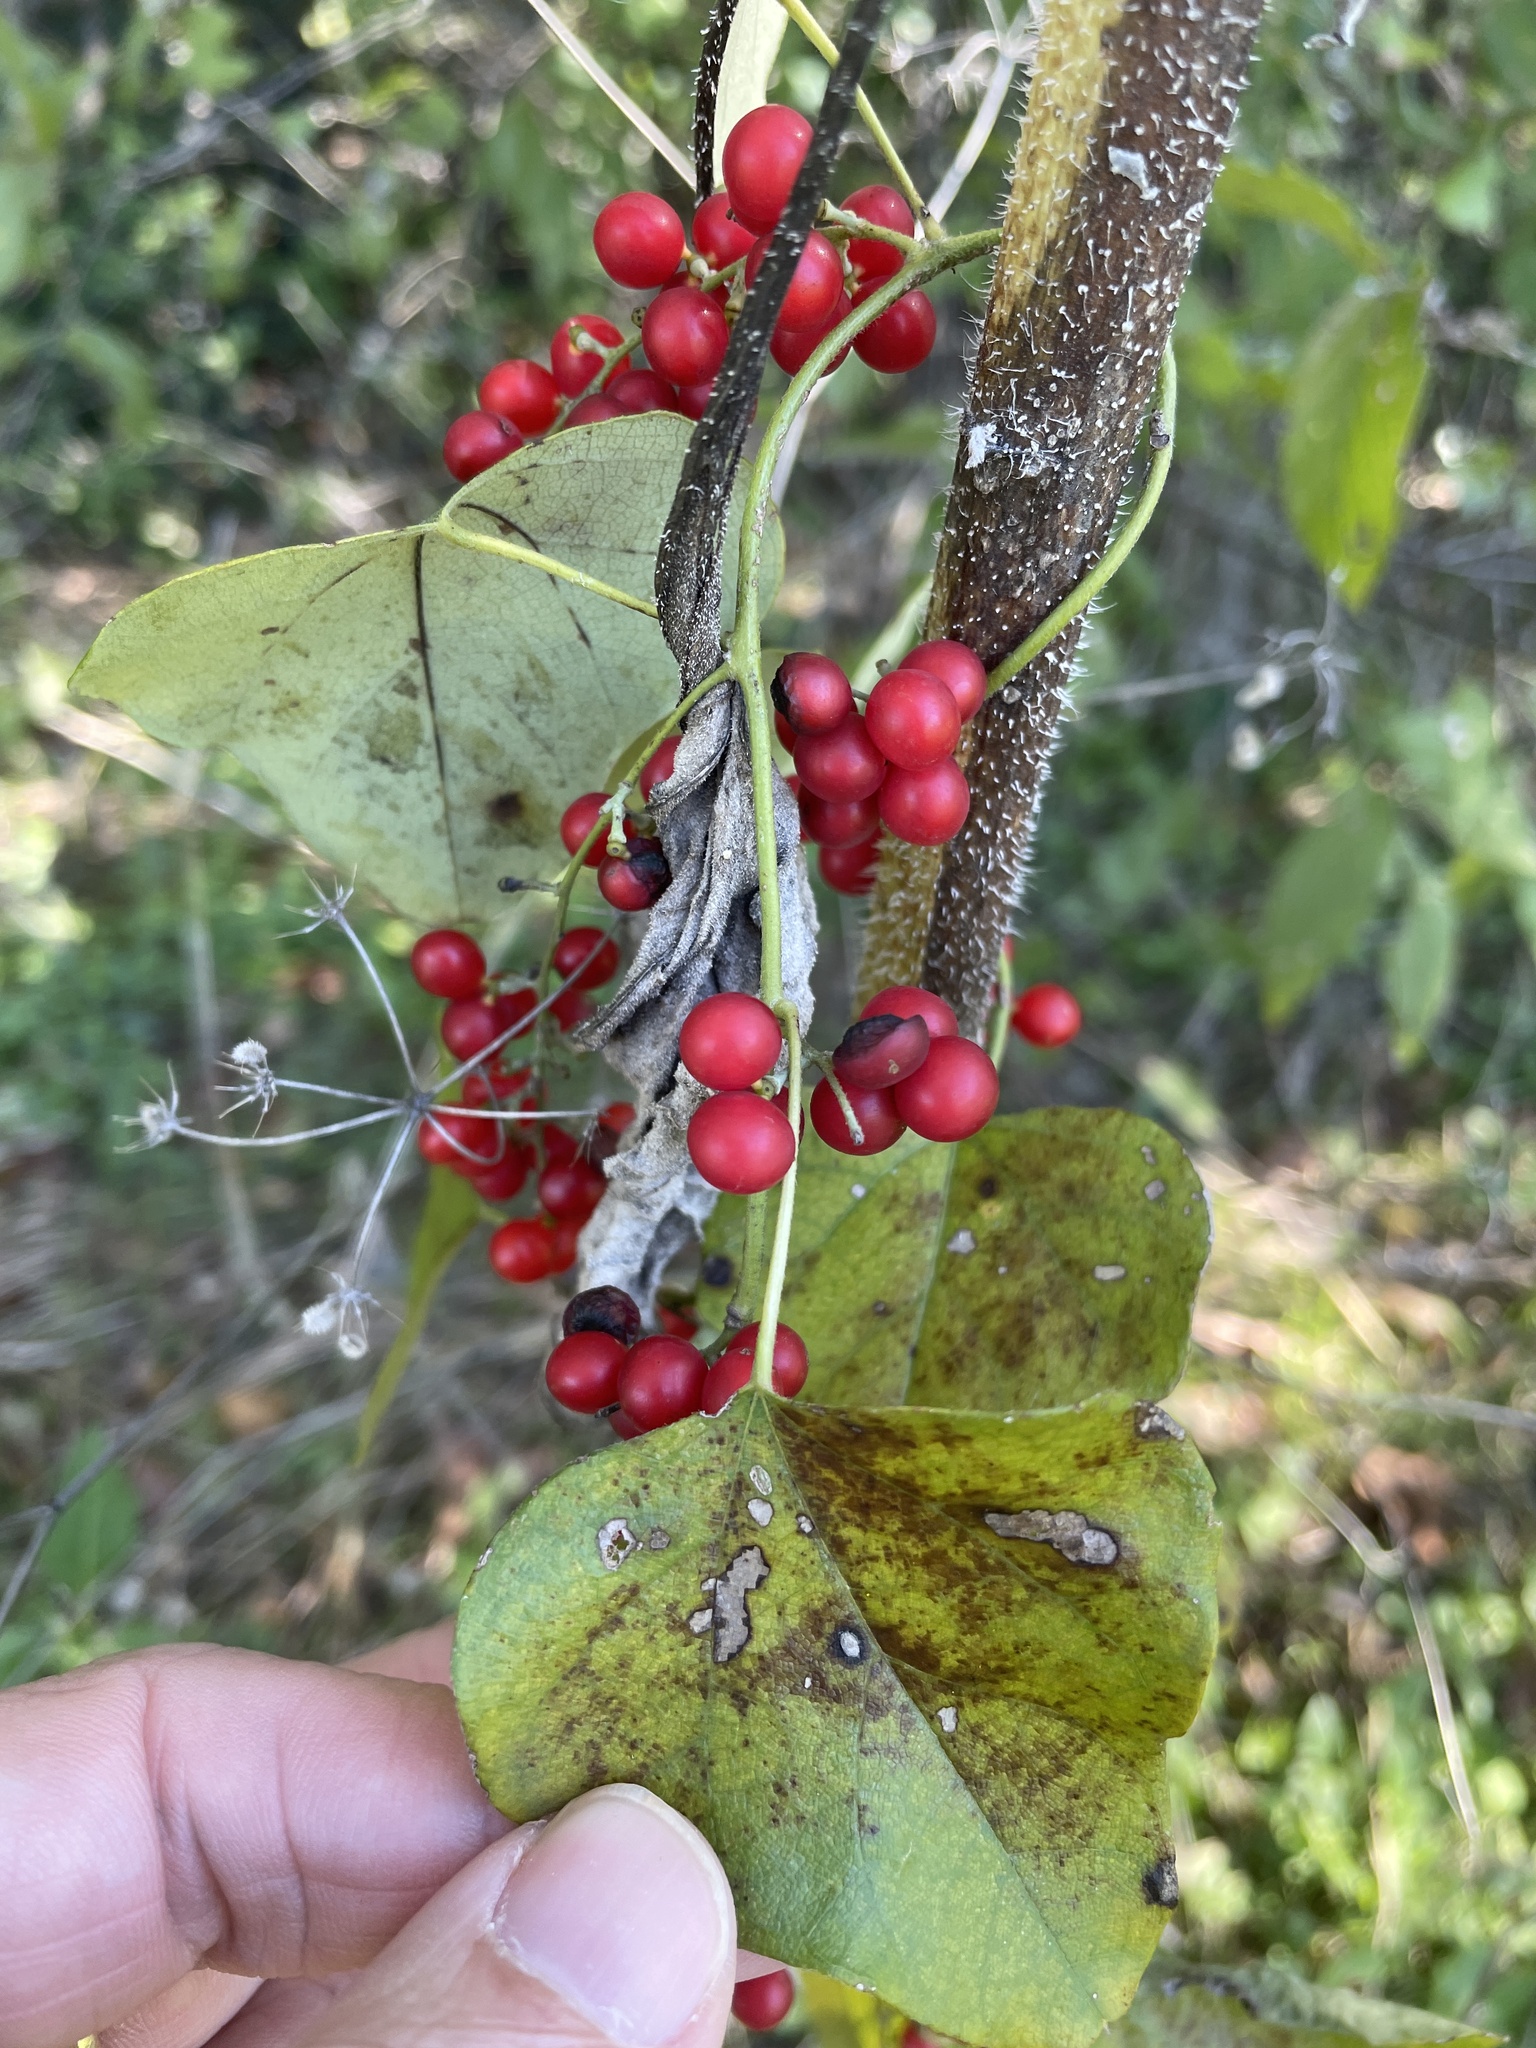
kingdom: Plantae
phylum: Tracheophyta
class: Magnoliopsida
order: Ranunculales
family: Menispermaceae
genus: Cocculus
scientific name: Cocculus carolinus
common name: Carolina moonseed
